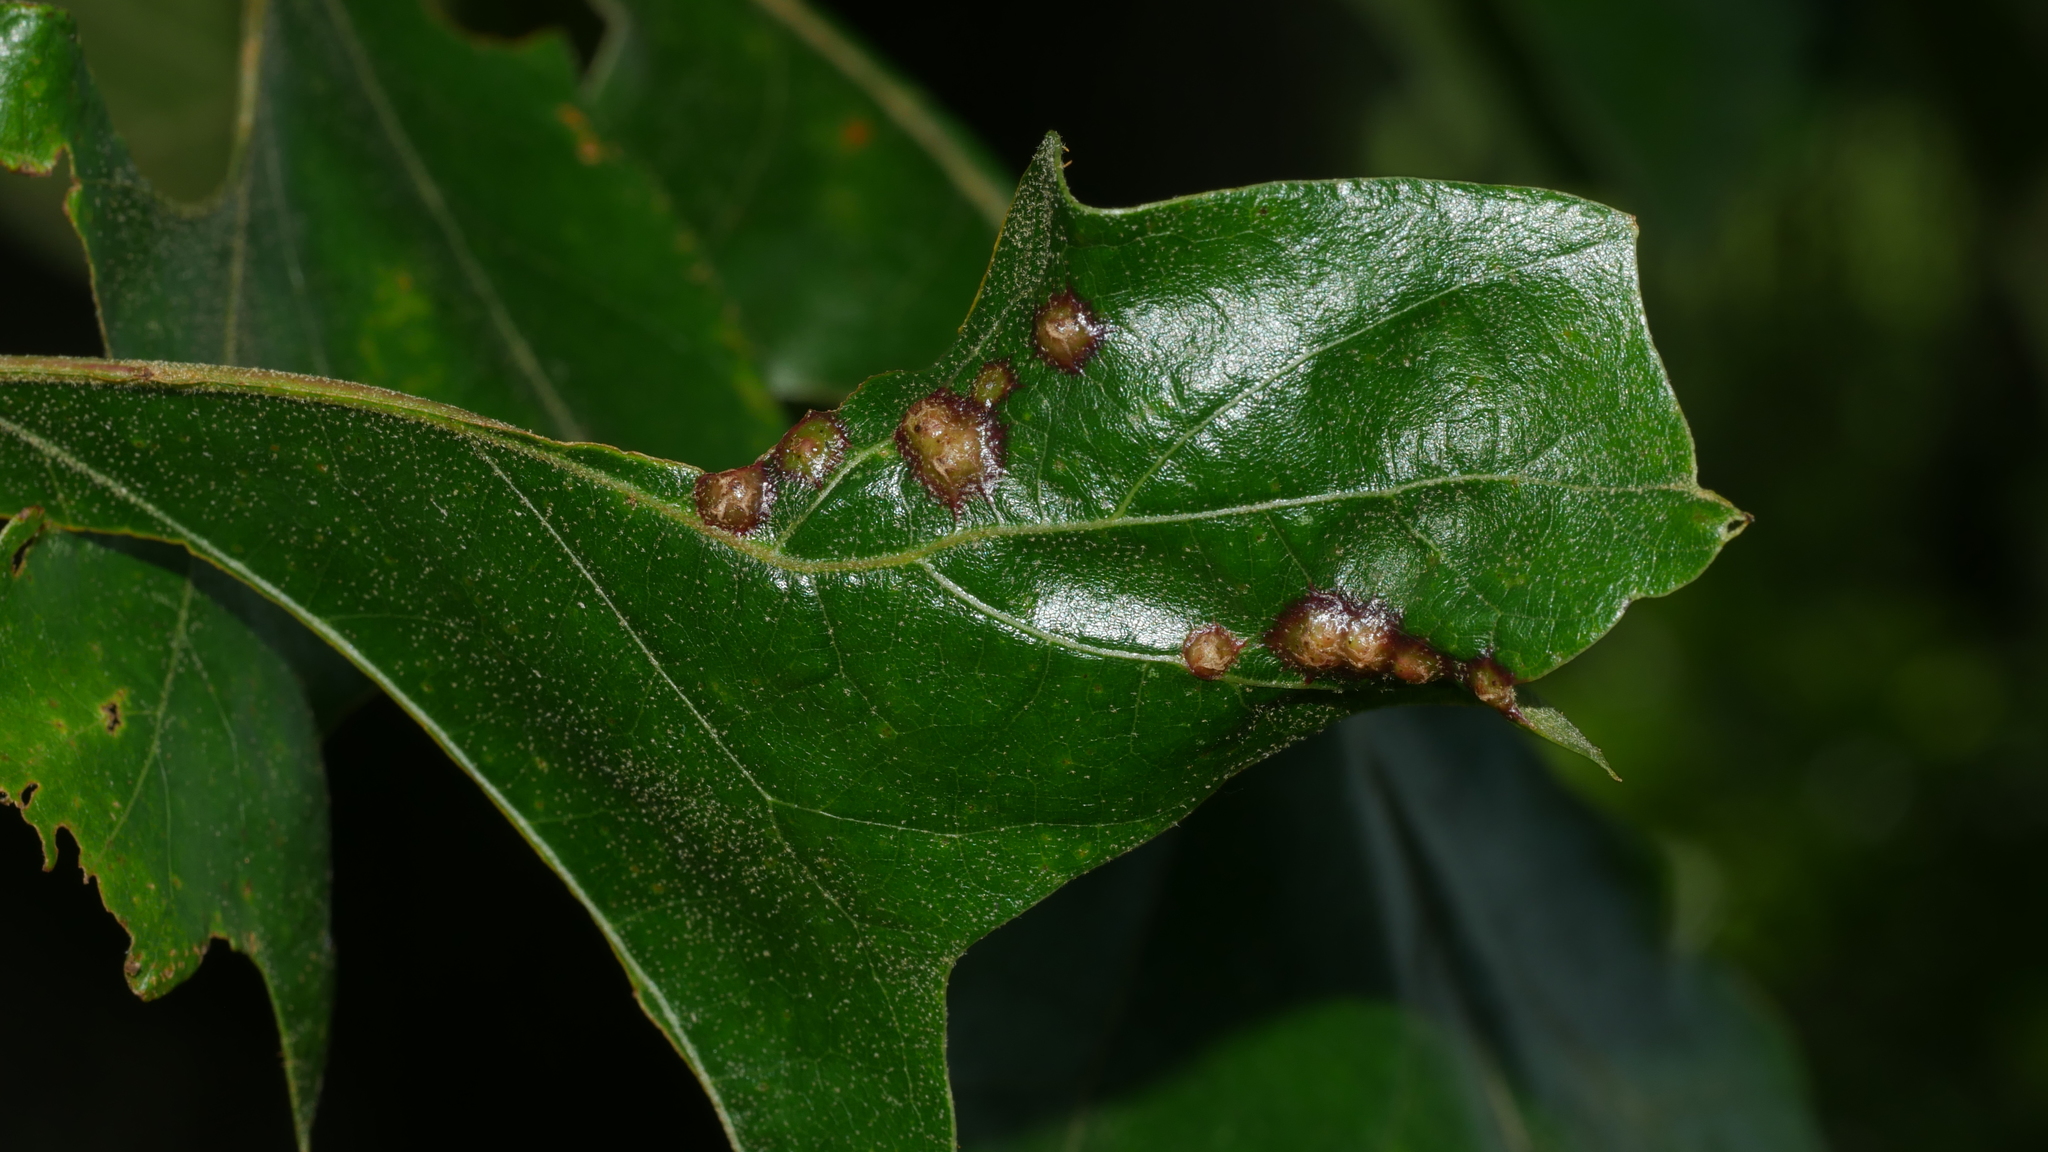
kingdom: Animalia
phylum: Arthropoda
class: Insecta
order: Diptera
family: Cecidomyiidae
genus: Polystepha
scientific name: Polystepha pilulae
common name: Oak leaf gall midge
